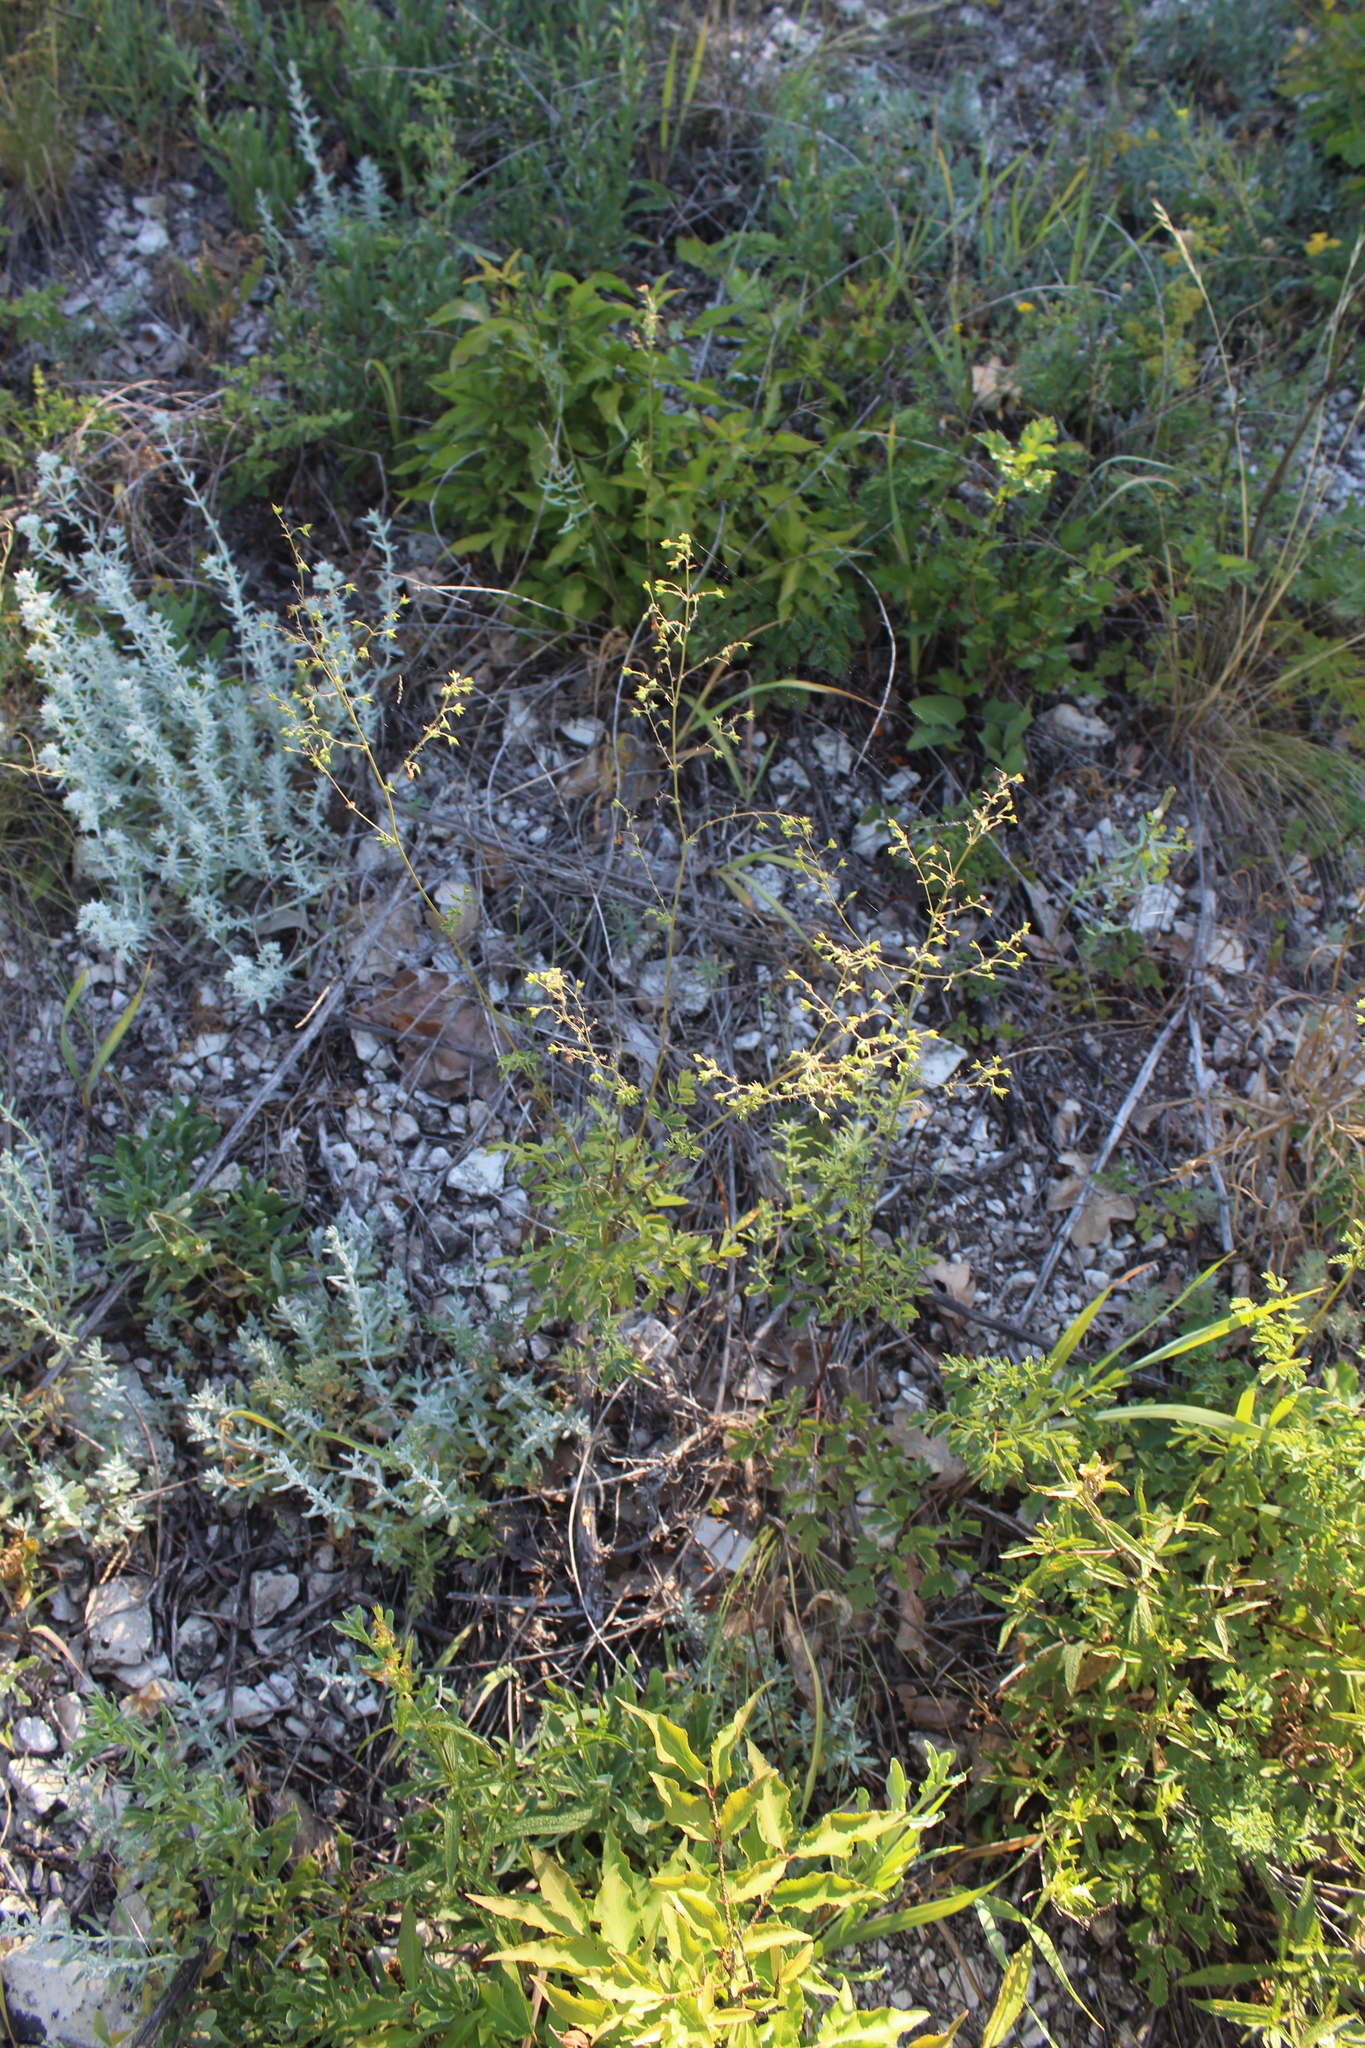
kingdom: Plantae
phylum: Tracheophyta
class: Magnoliopsida
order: Ranunculales
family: Ranunculaceae
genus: Thalictrum
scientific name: Thalictrum minus
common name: Lesser meadow-rue
